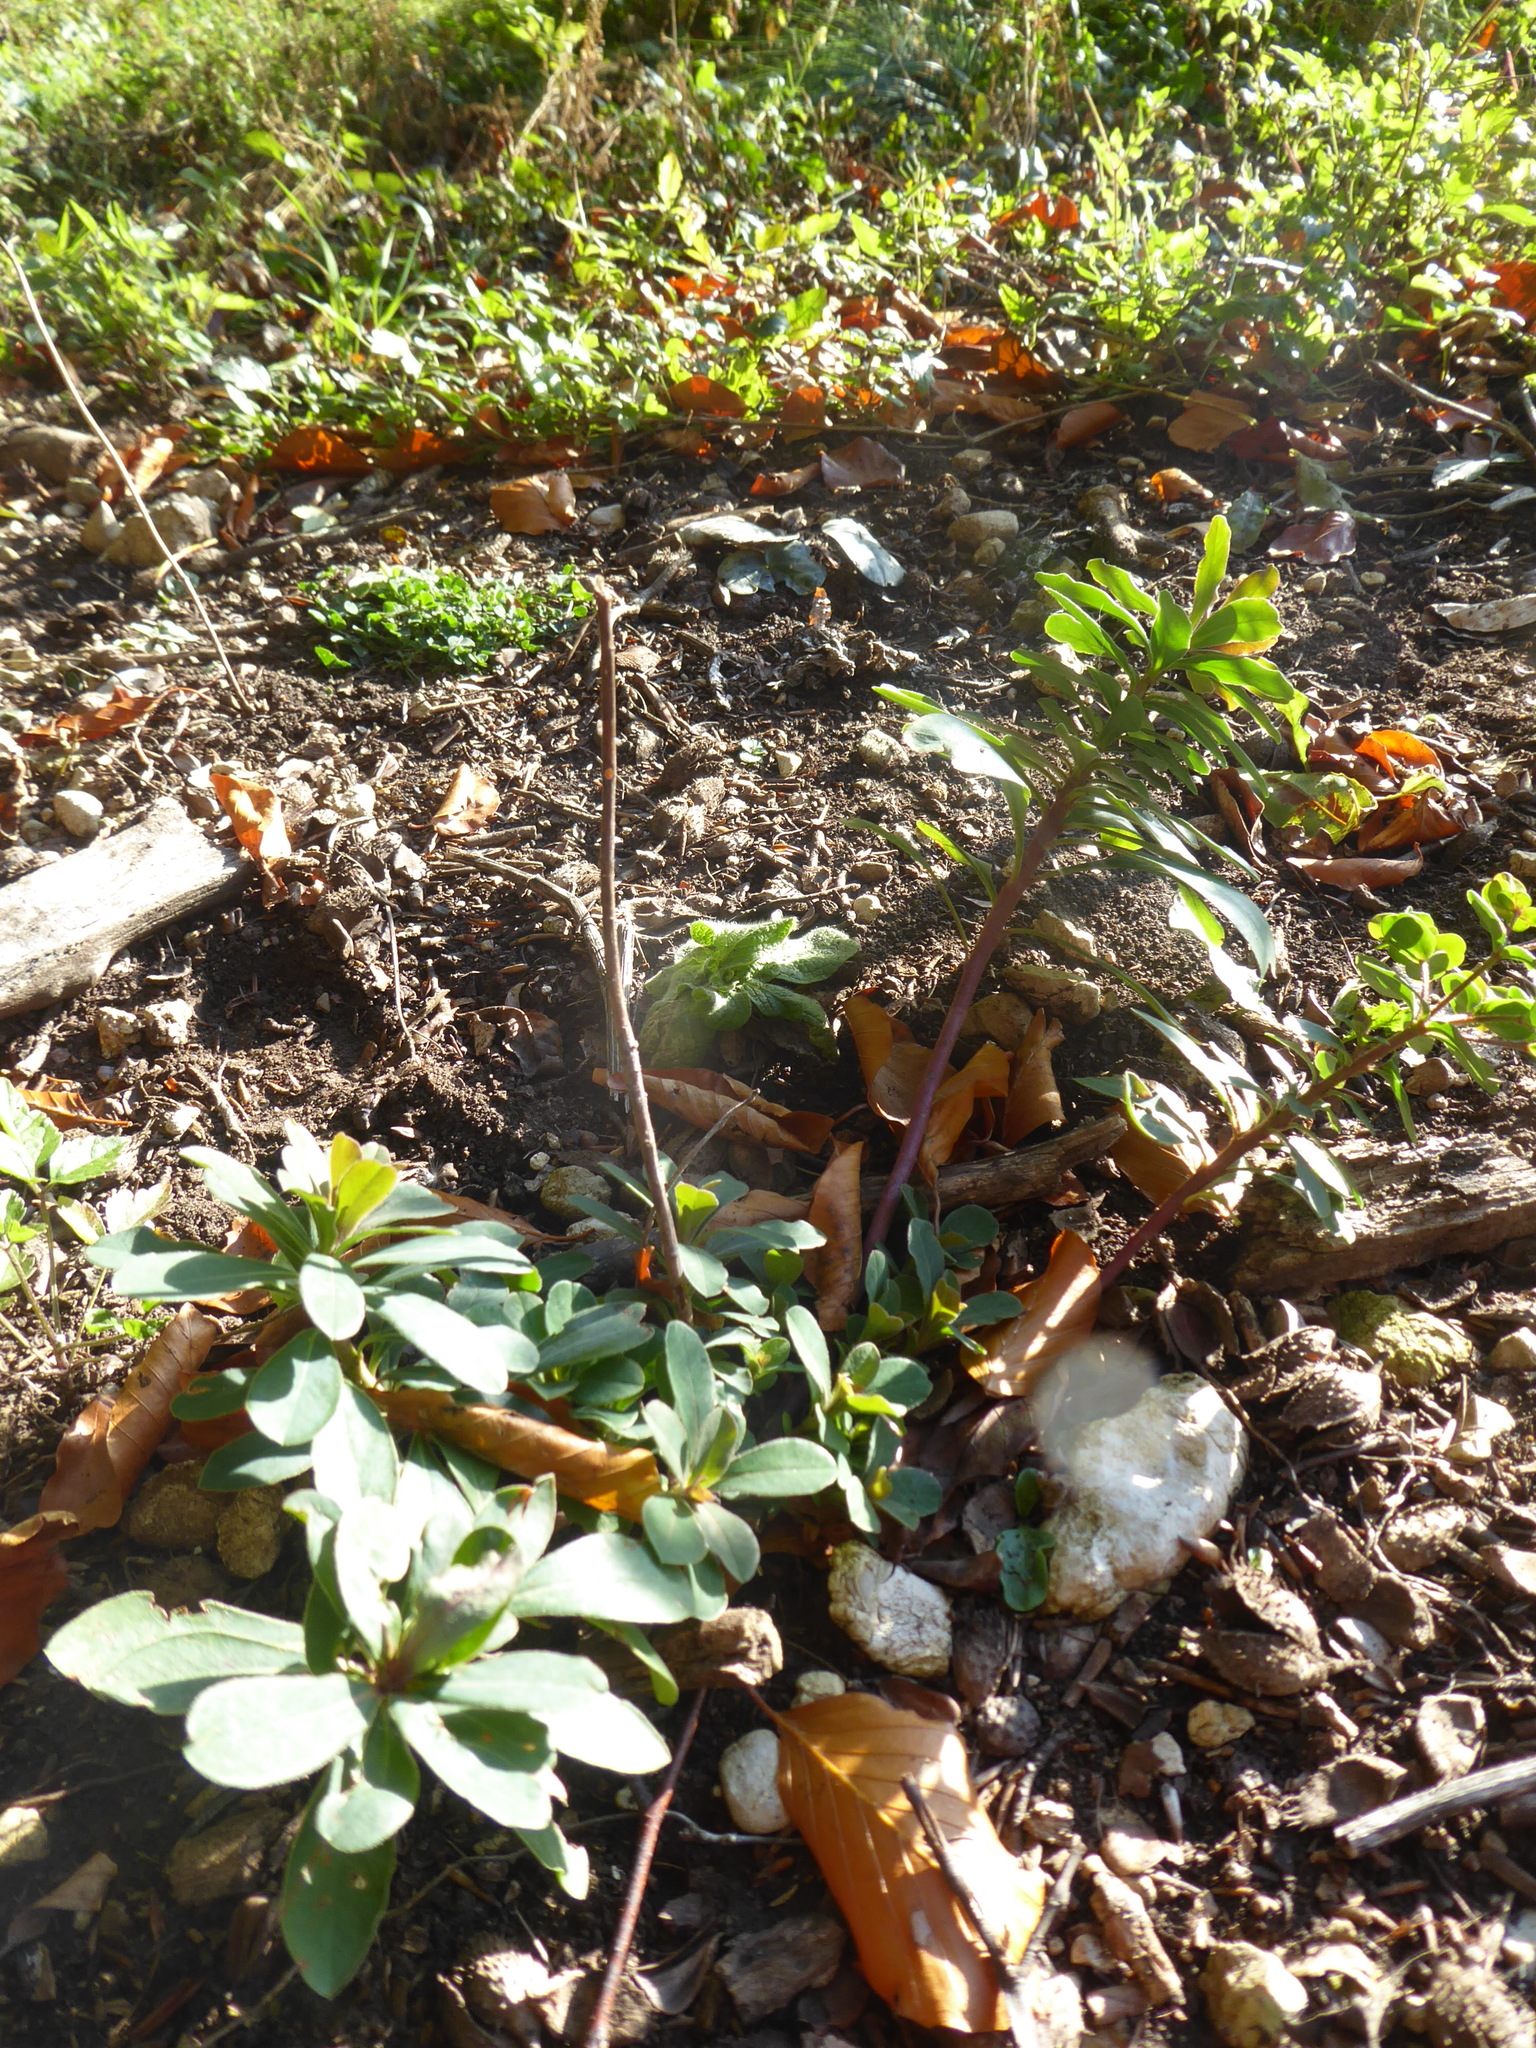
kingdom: Plantae
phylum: Tracheophyta
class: Magnoliopsida
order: Malpighiales
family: Euphorbiaceae
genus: Euphorbia
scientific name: Euphorbia amygdaloides
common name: Wood spurge
